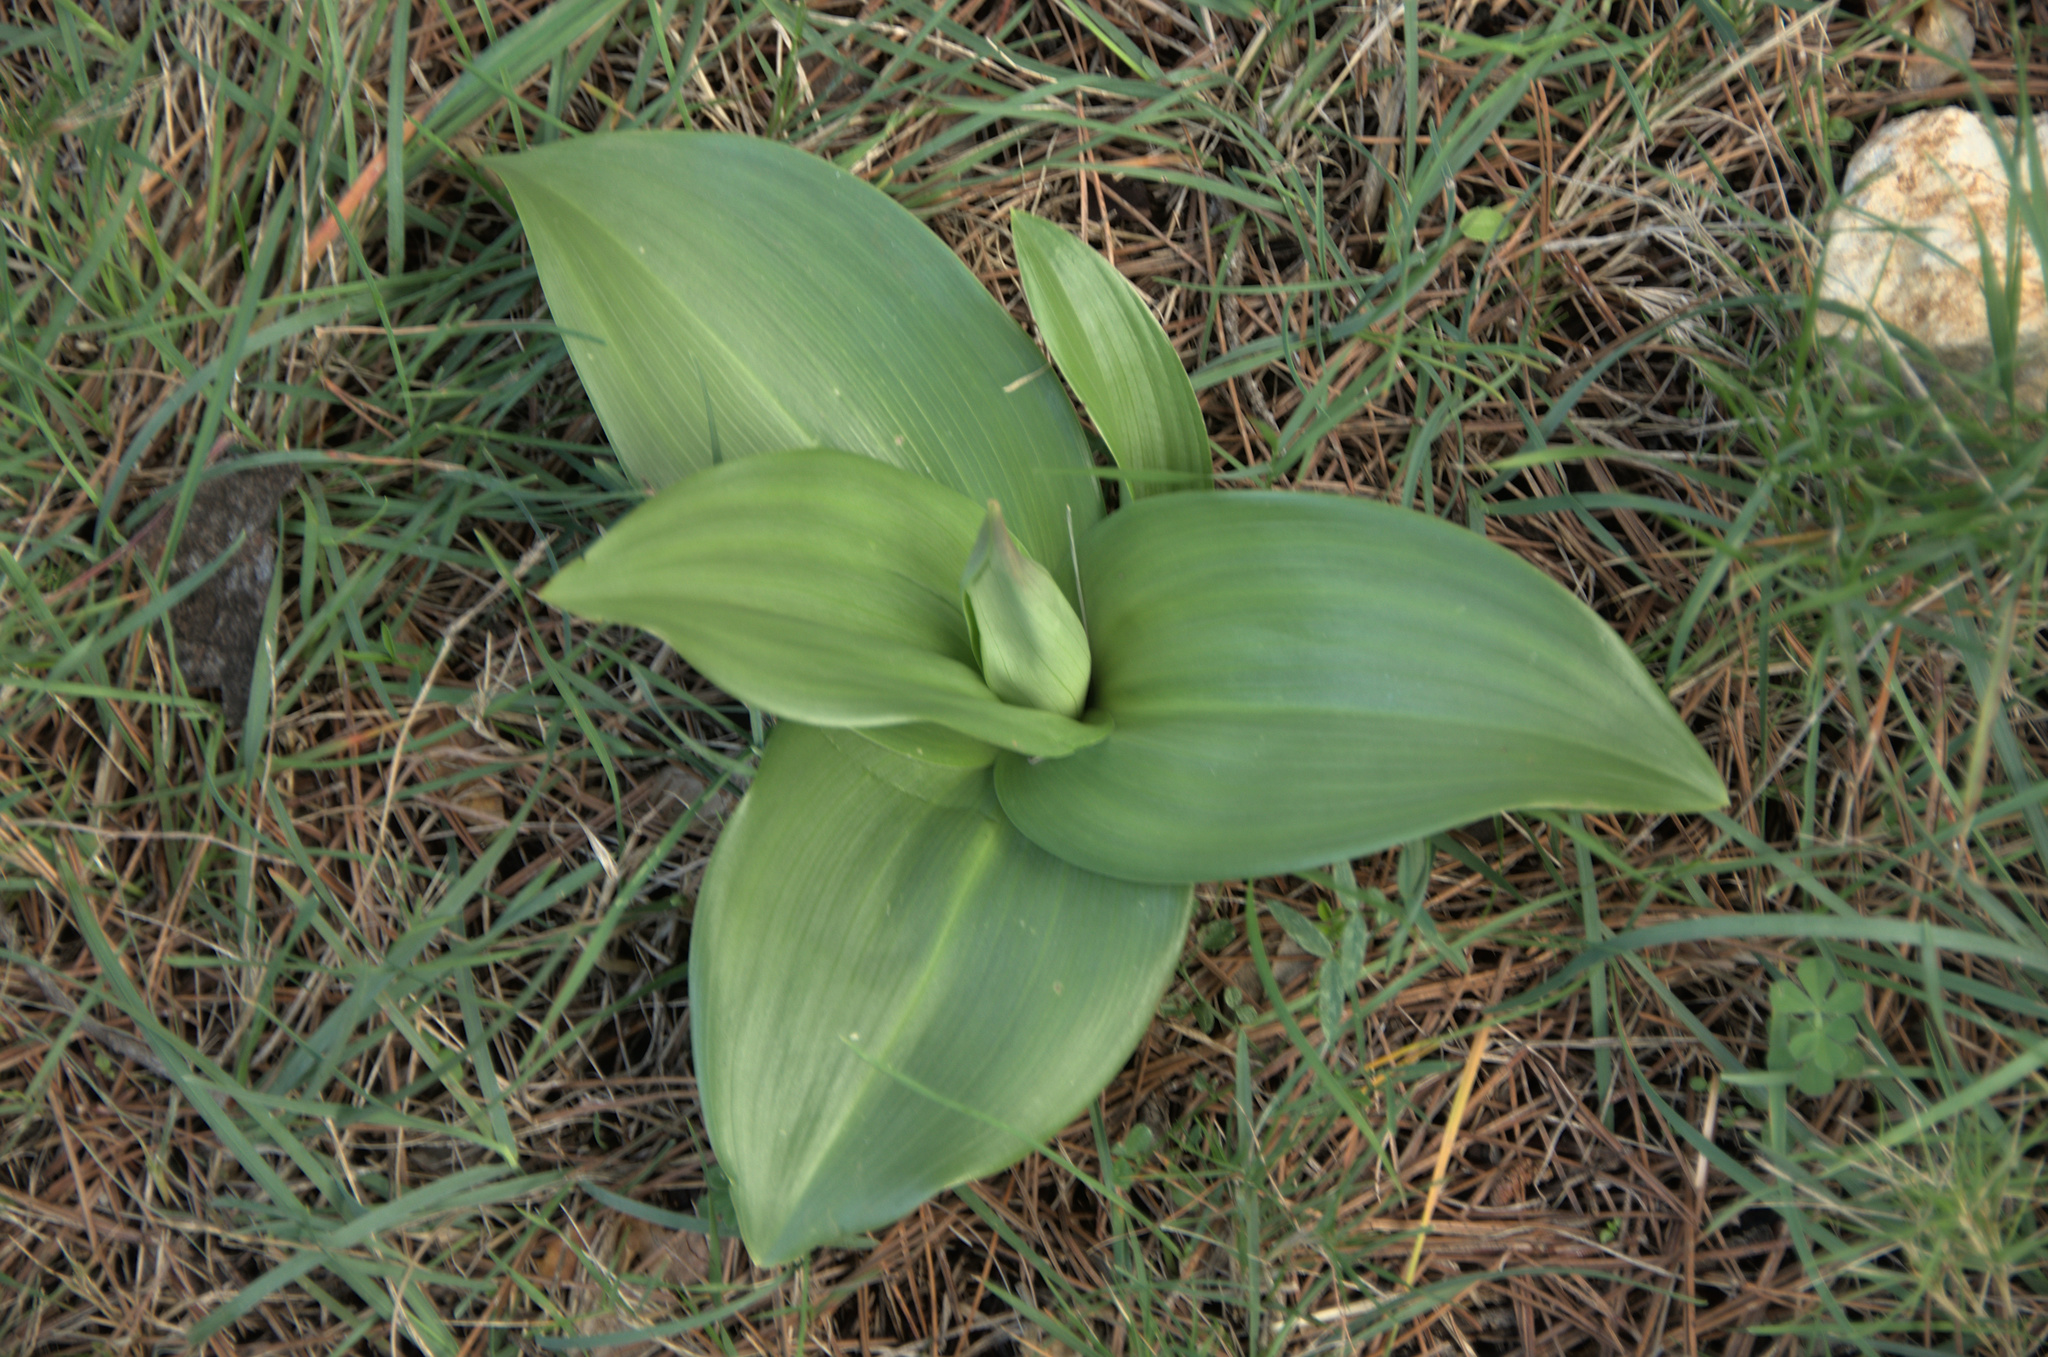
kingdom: Plantae
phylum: Tracheophyta
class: Liliopsida
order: Asparagales
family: Orchidaceae
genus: Himantoglossum
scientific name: Himantoglossum robertianum
